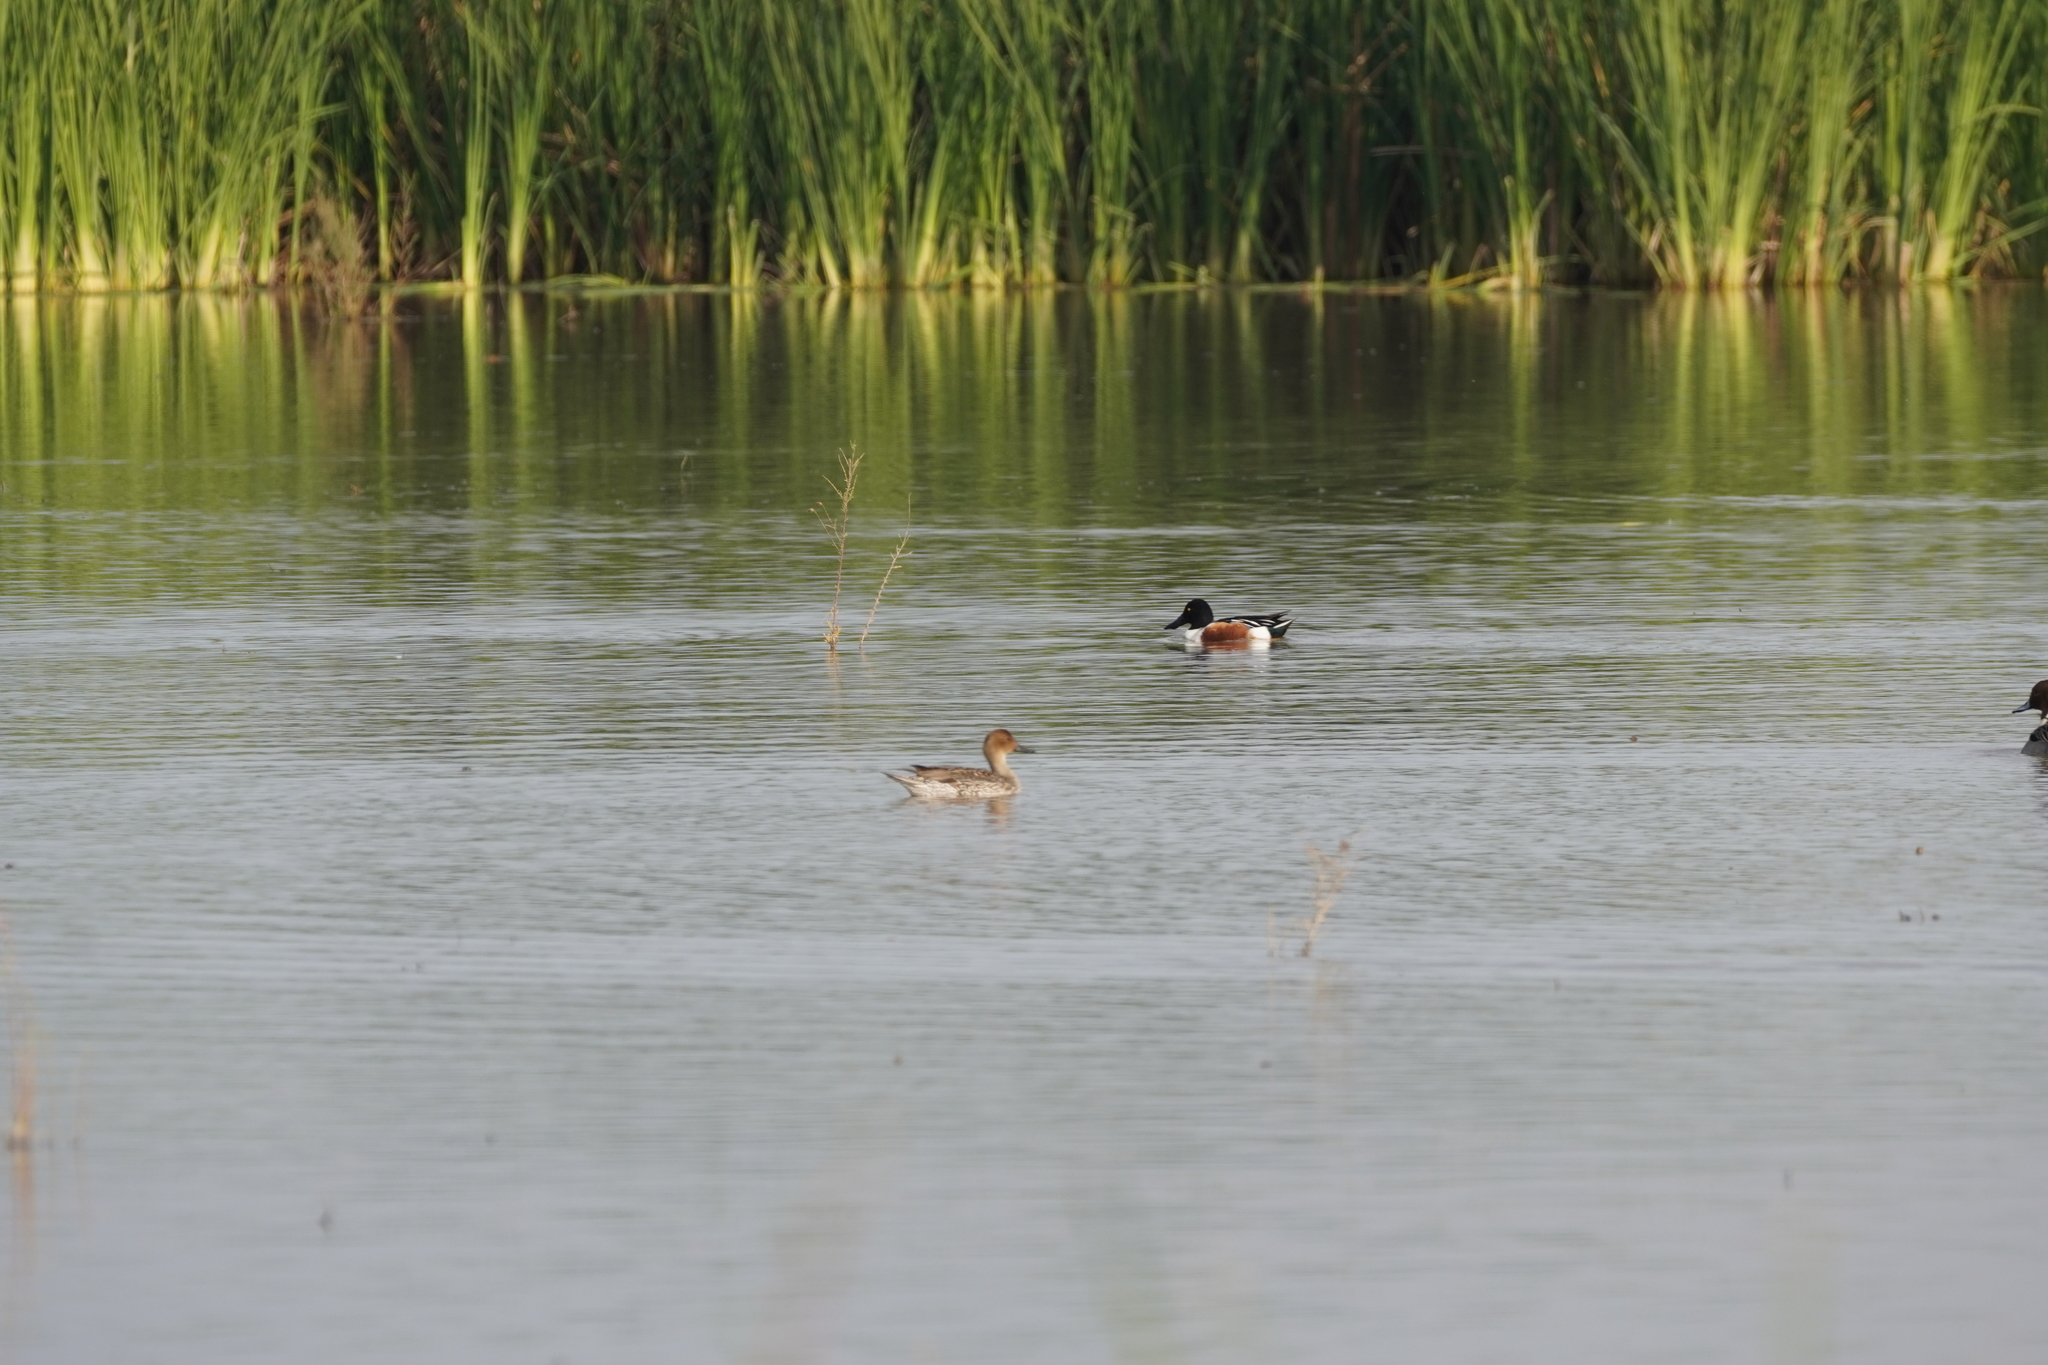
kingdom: Animalia
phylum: Chordata
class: Aves
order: Anseriformes
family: Anatidae
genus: Spatula
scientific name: Spatula clypeata
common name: Northern shoveler
